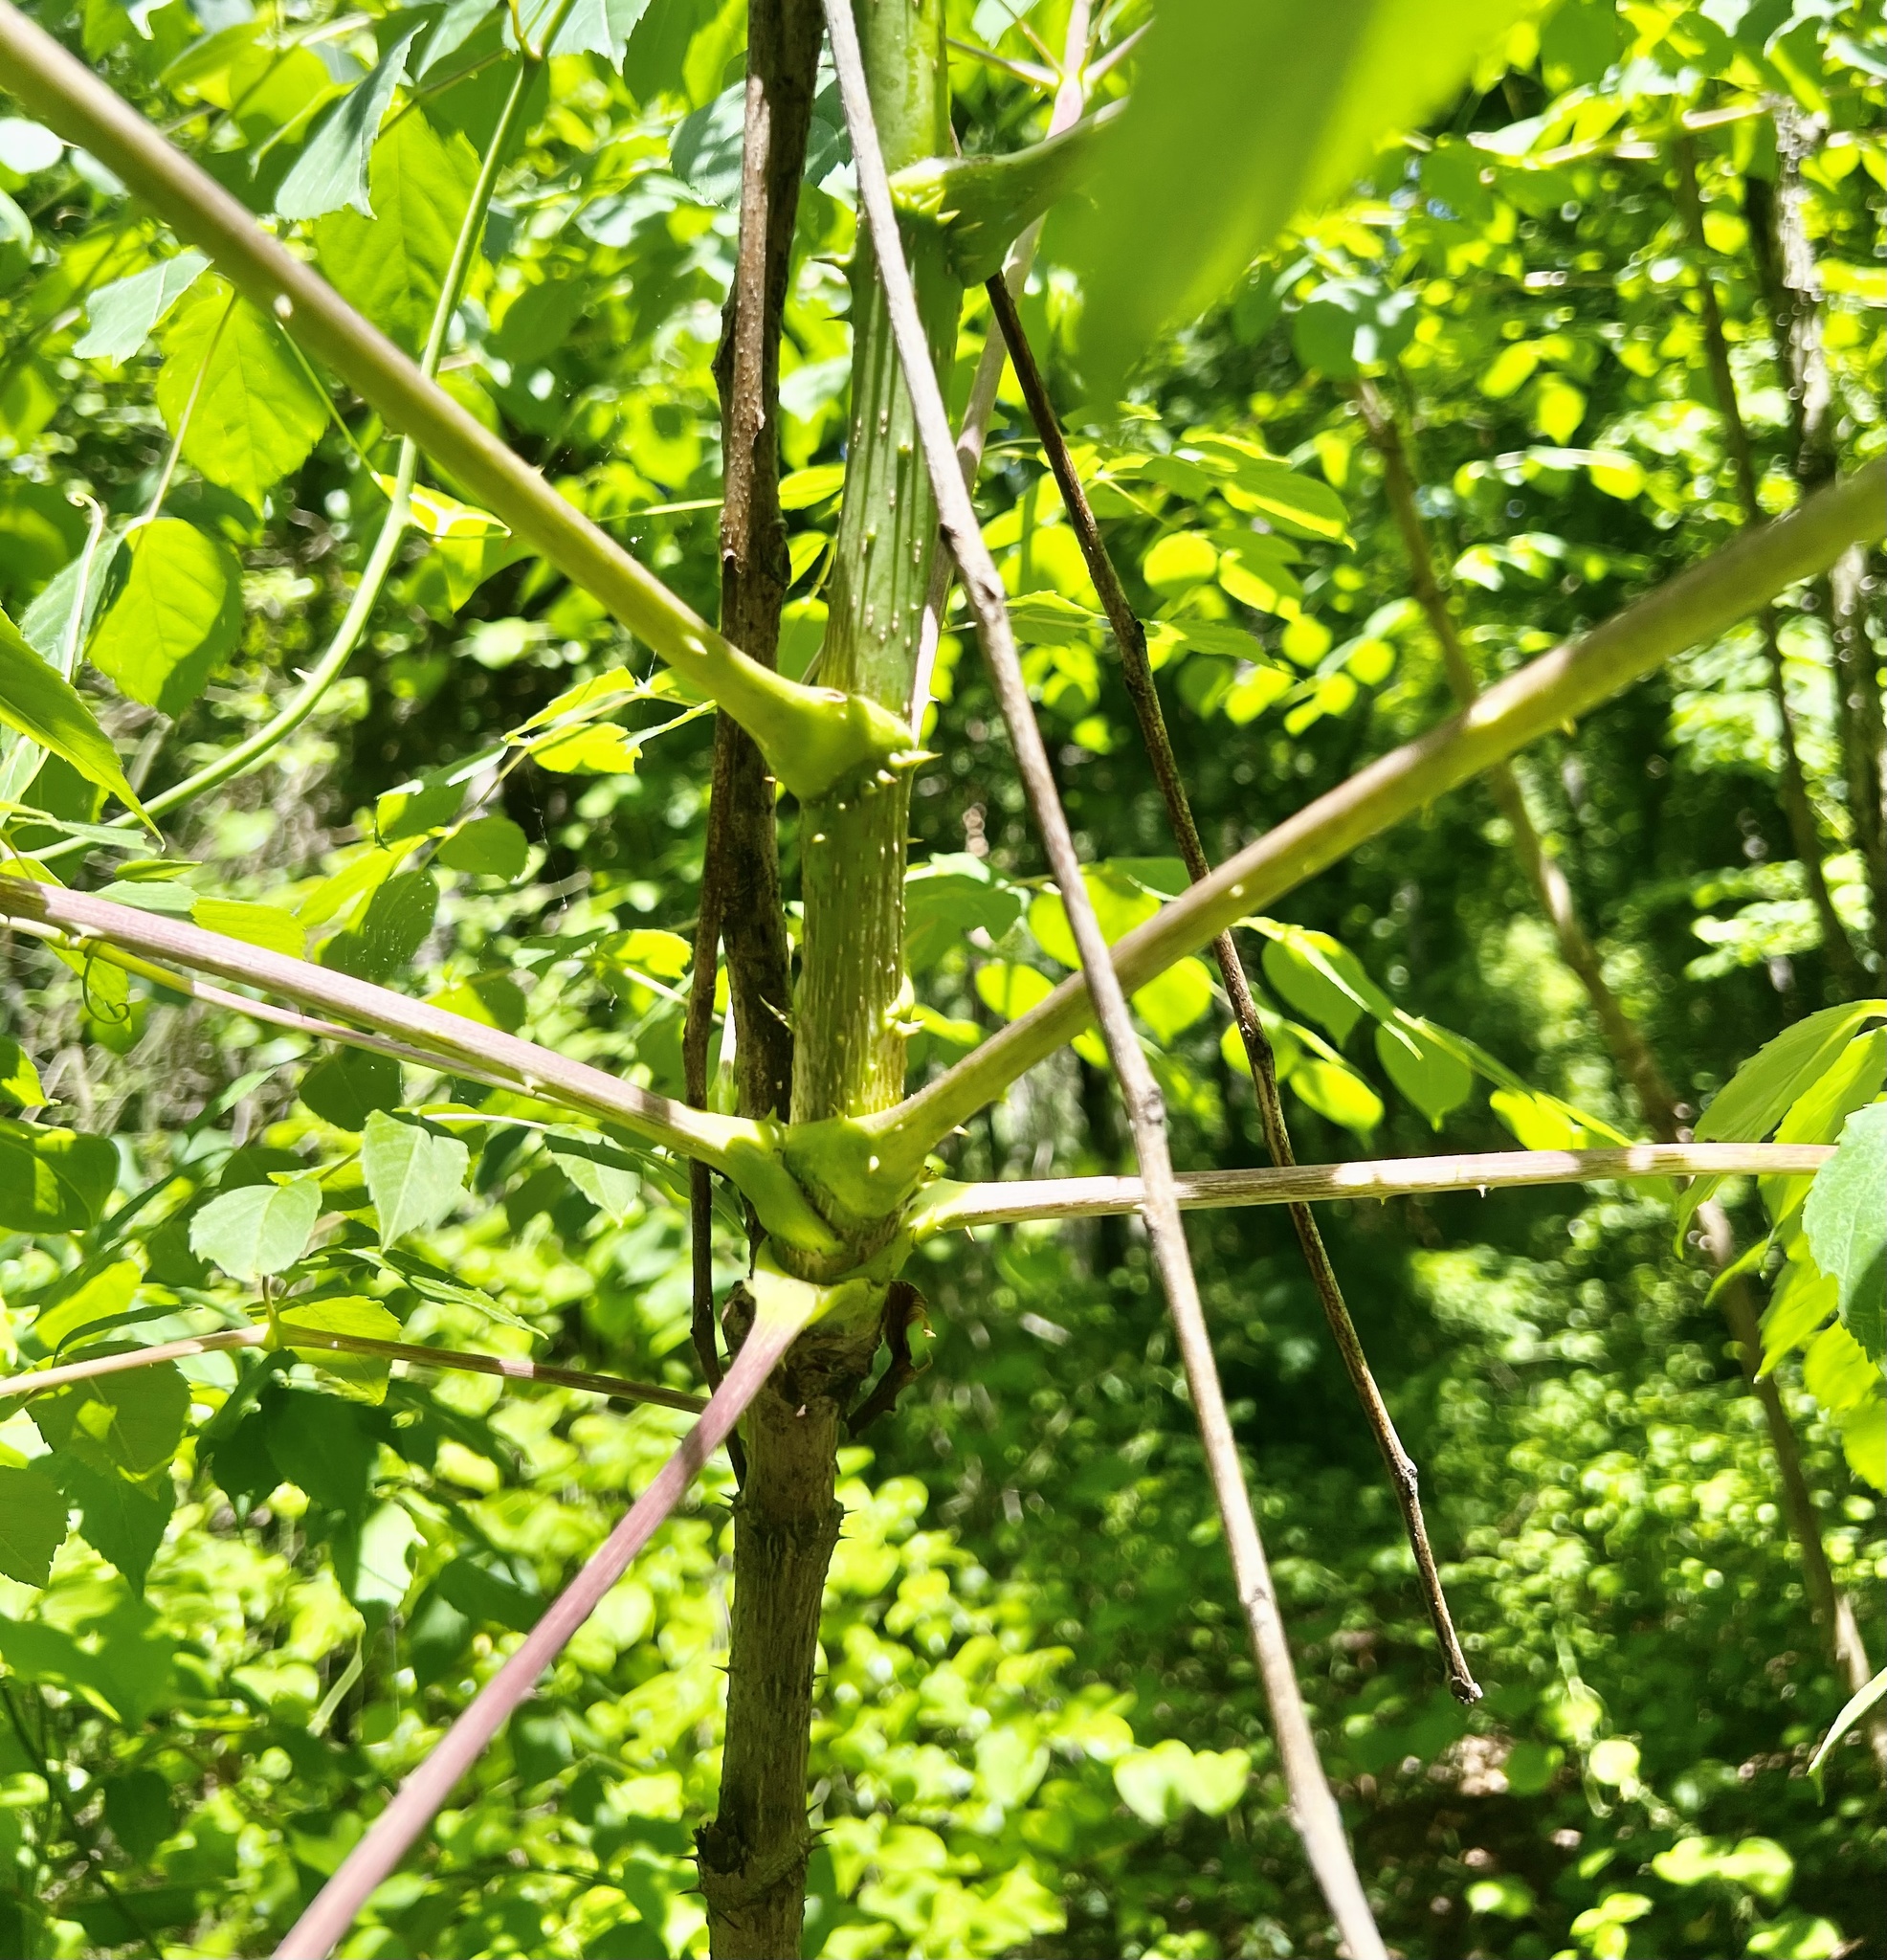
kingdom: Plantae
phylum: Tracheophyta
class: Magnoliopsida
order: Apiales
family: Araliaceae
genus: Aralia
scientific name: Aralia spinosa
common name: Hercules'-club
